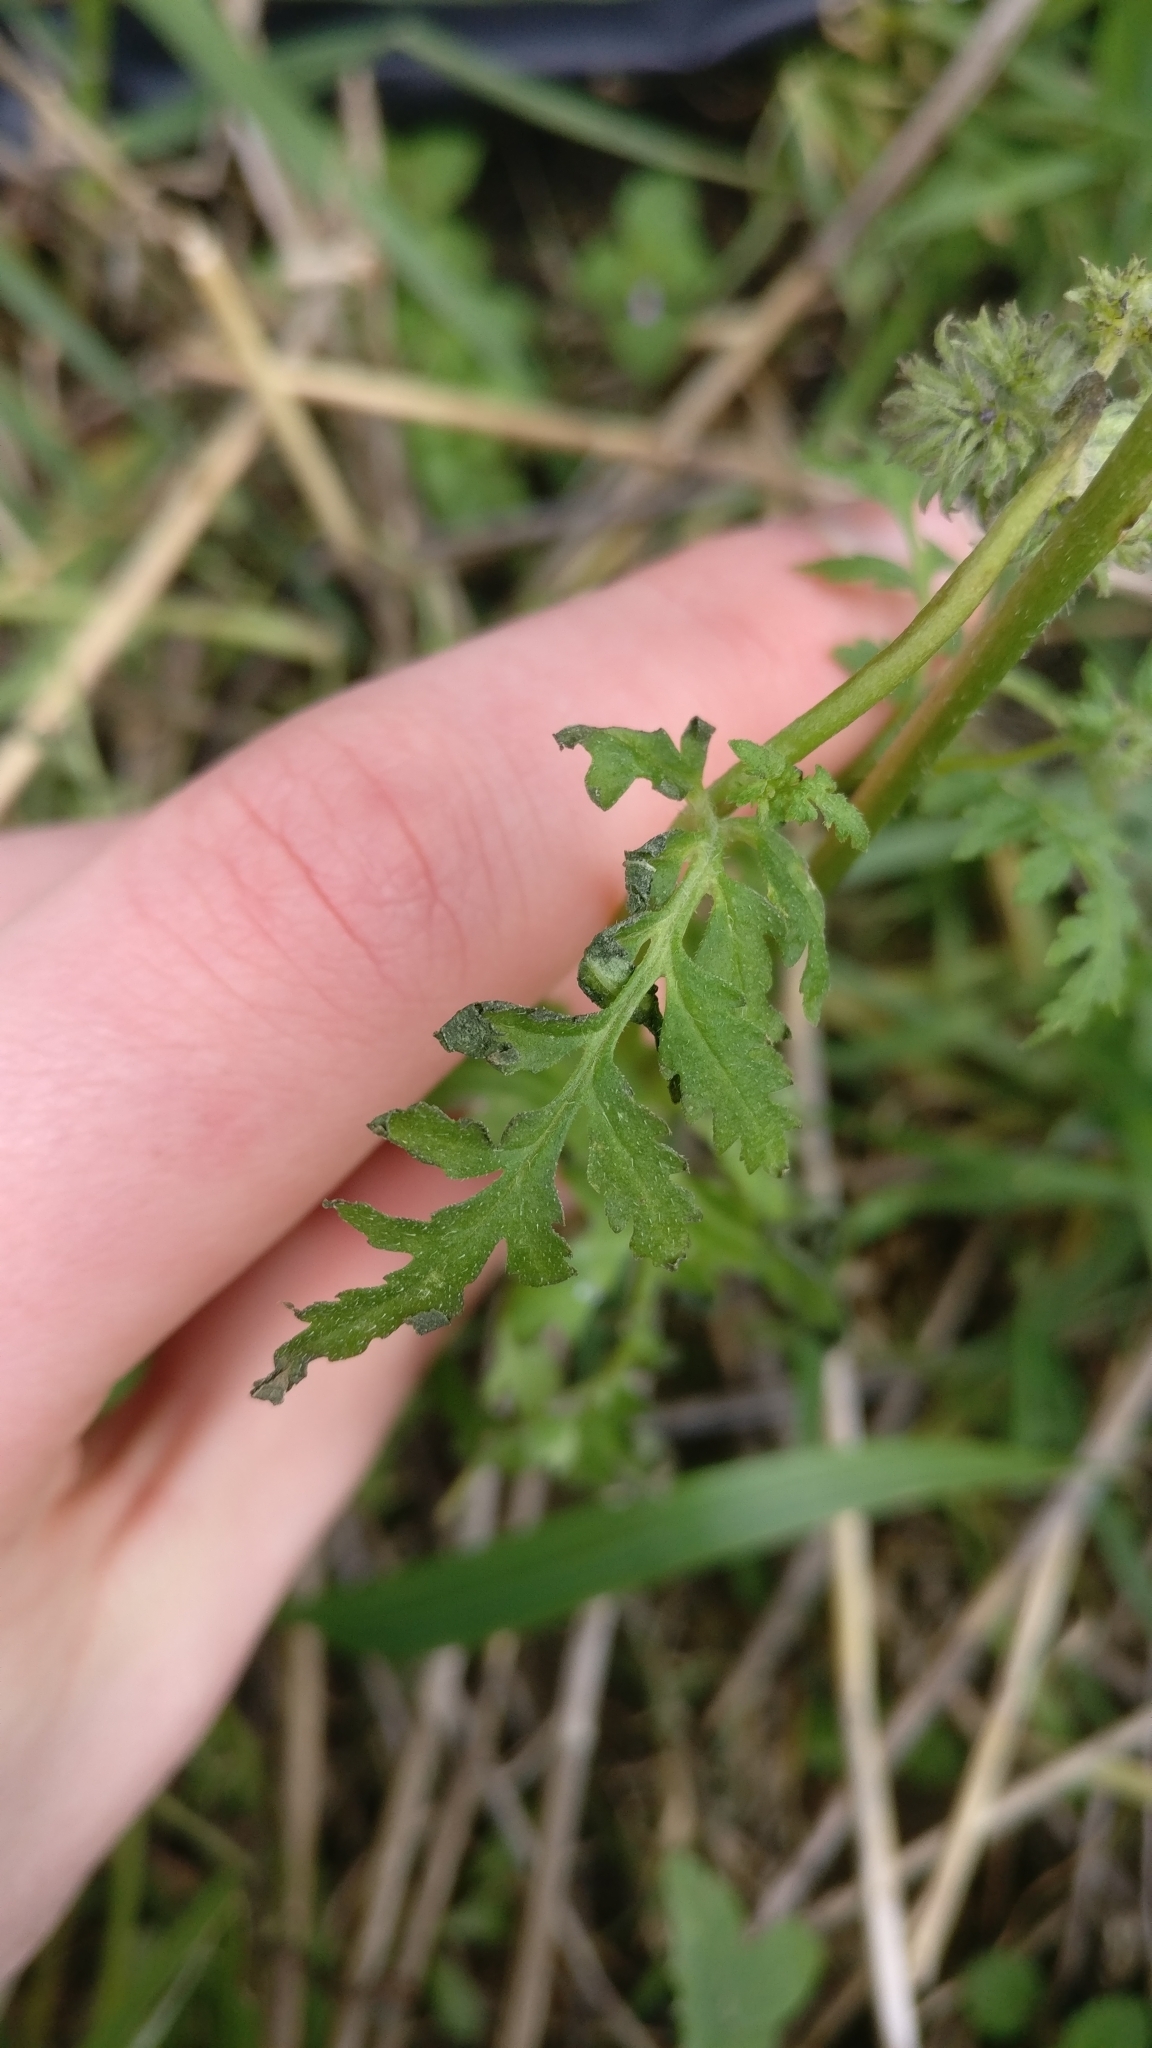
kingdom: Plantae
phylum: Tracheophyta
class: Magnoliopsida
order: Boraginales
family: Hydrophyllaceae
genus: Phacelia
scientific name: Phacelia tanacetifolia
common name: Phacelia
